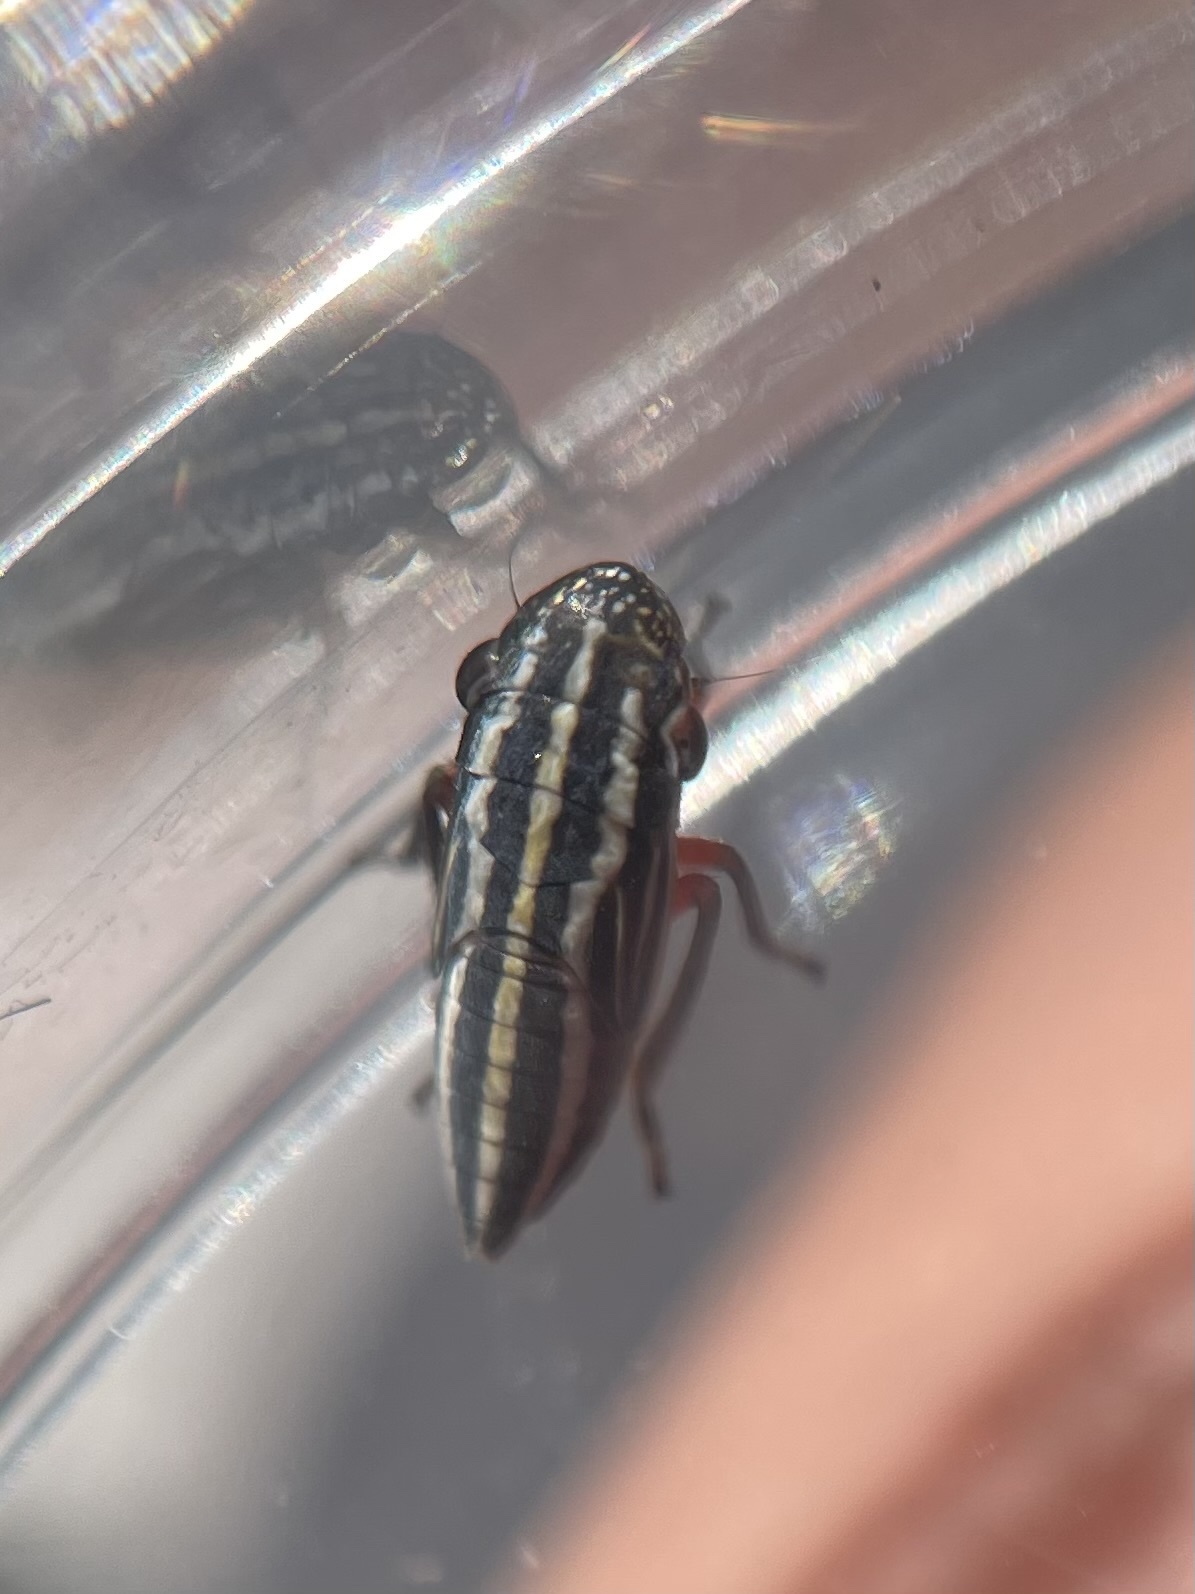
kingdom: Animalia
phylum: Arthropoda
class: Insecta
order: Hemiptera
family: Cicadellidae
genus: Cuerna
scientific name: Cuerna costalis
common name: Lateral-lined sharpshooter
